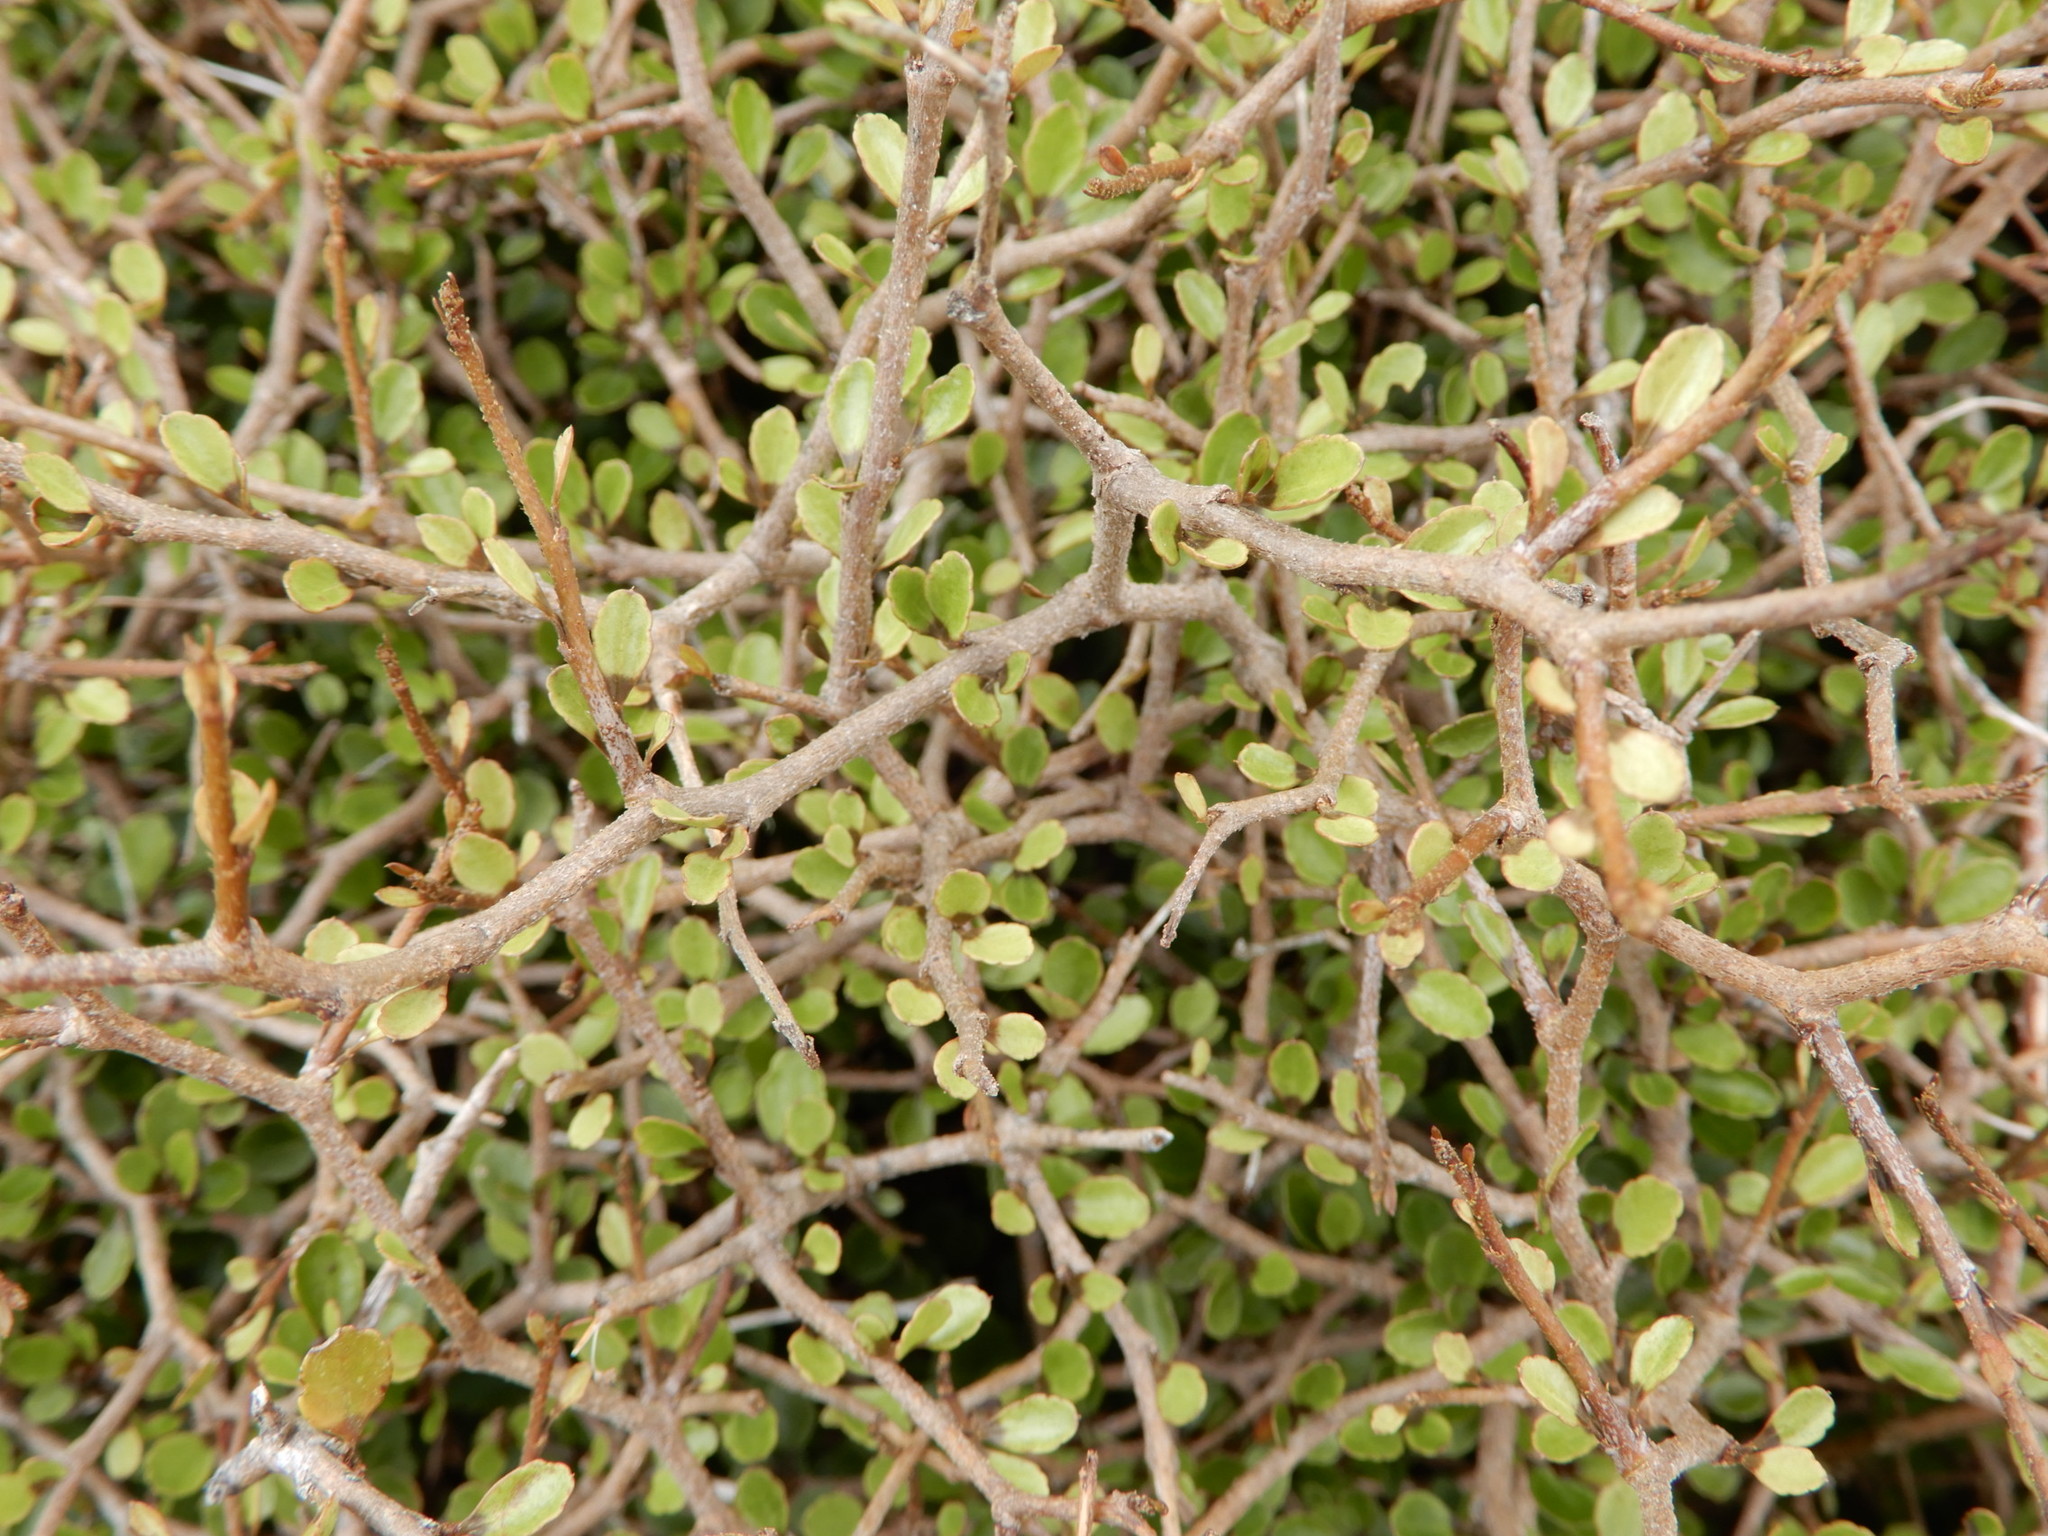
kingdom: Plantae
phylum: Tracheophyta
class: Magnoliopsida
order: Apiales
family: Araliaceae
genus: Raukaua
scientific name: Raukaua anomalus
